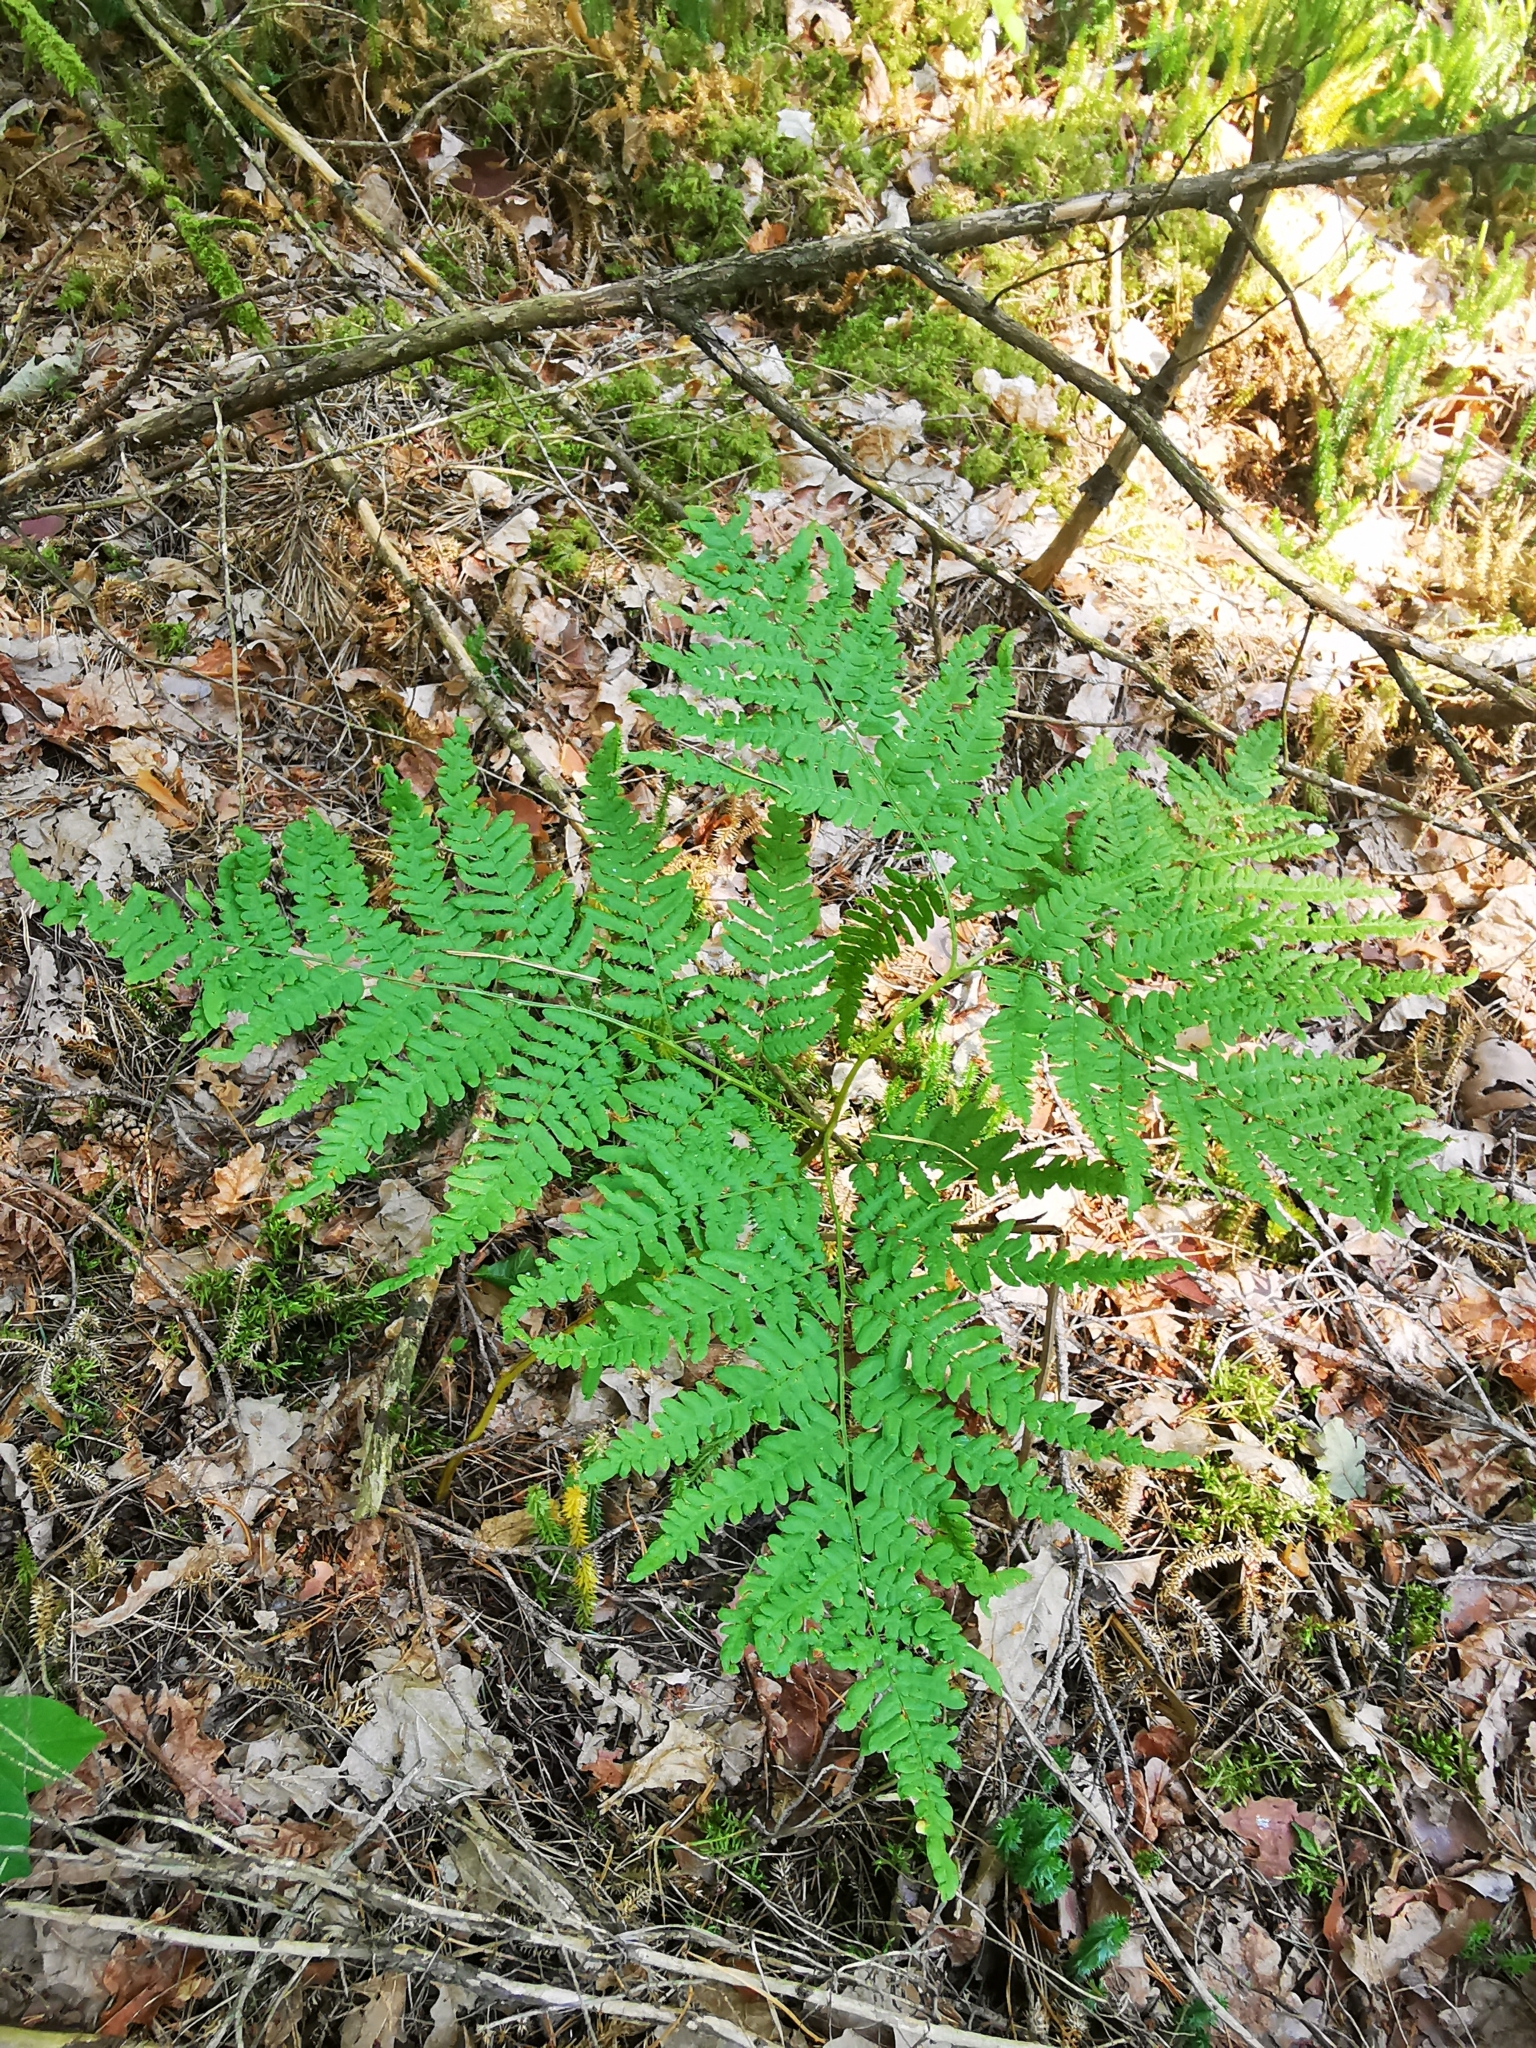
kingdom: Plantae
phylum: Tracheophyta
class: Polypodiopsida
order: Polypodiales
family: Dennstaedtiaceae
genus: Pteridium
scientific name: Pteridium aquilinum
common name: Bracken
